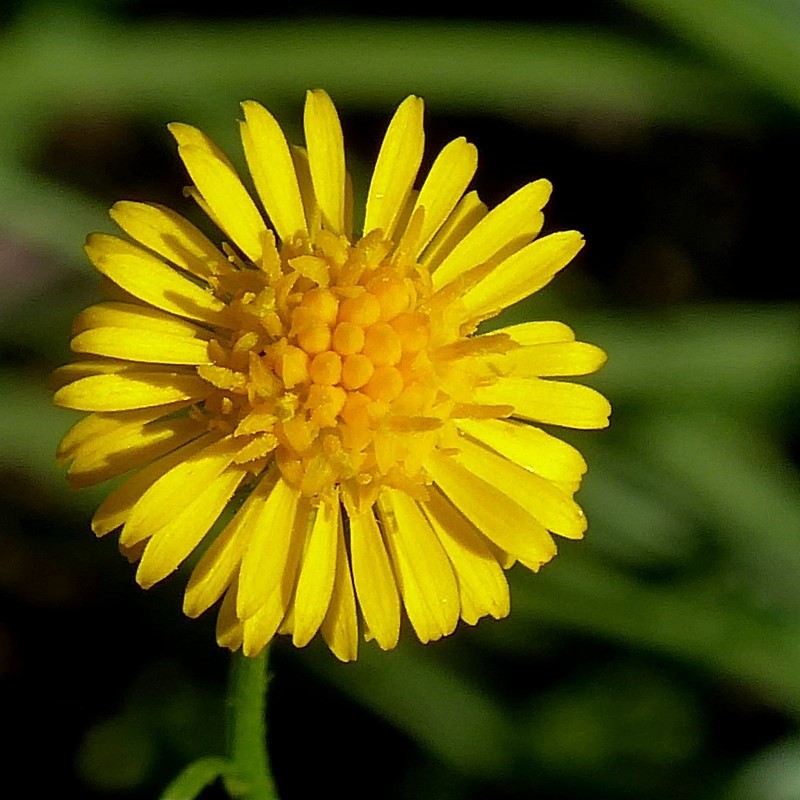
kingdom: Plantae
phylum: Tracheophyta
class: Magnoliopsida
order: Asterales
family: Asteraceae
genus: Calotis
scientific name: Calotis lappulacea
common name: Bur daisy
